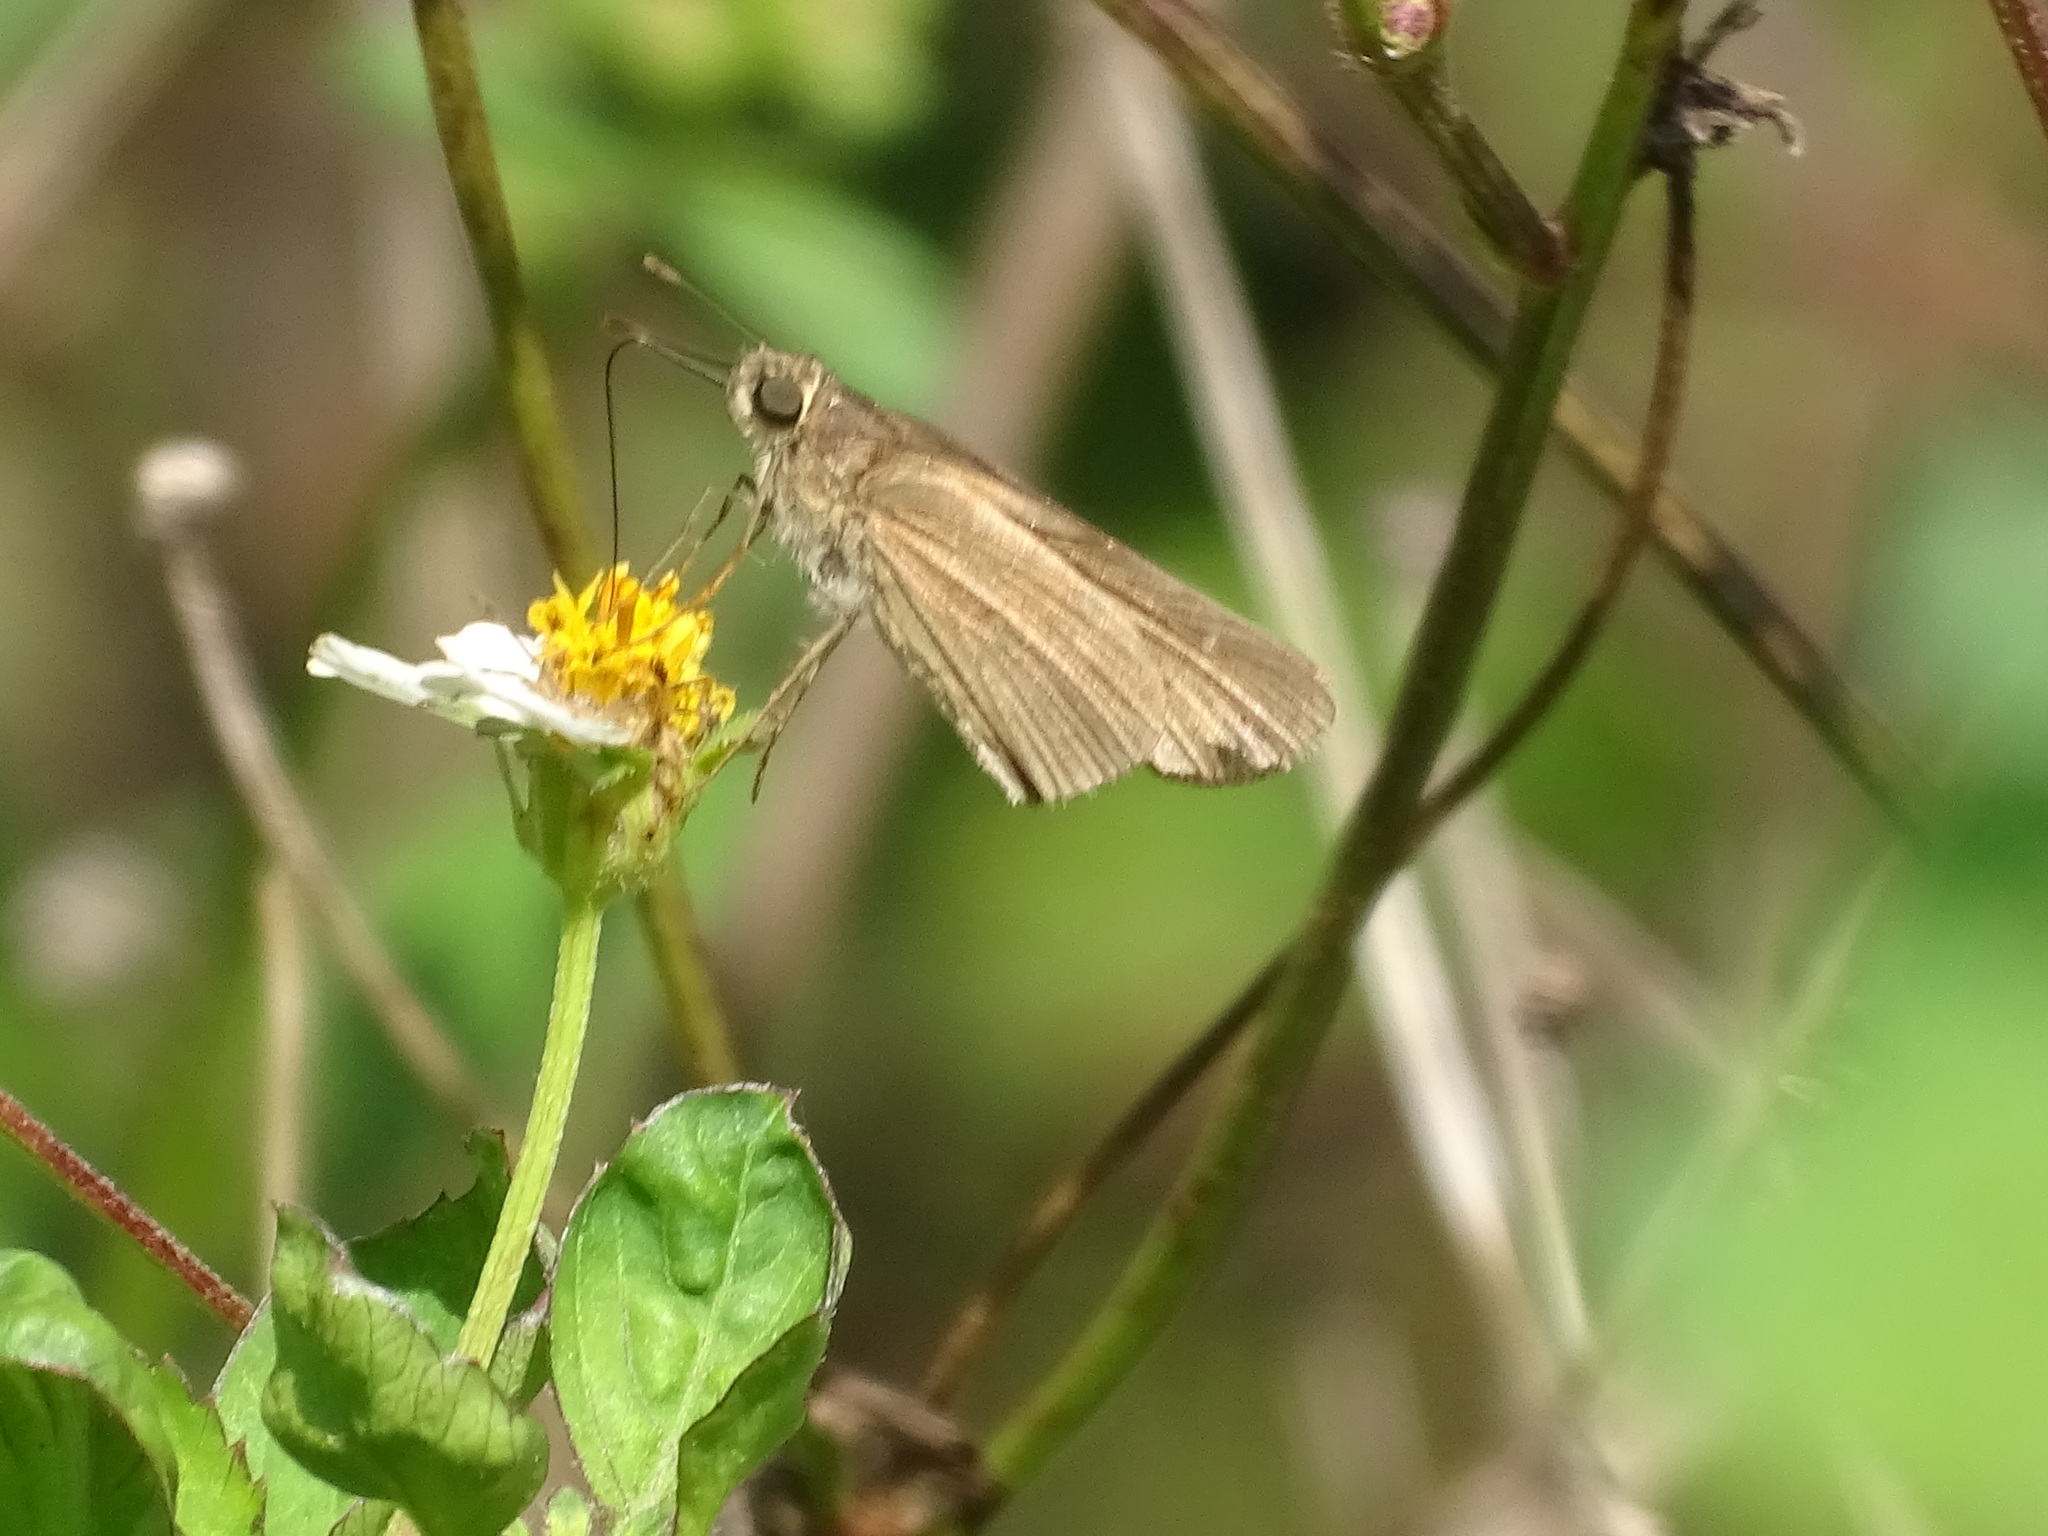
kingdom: Animalia
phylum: Arthropoda
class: Insecta
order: Lepidoptera
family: Hesperiidae
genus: Panoquina
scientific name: Panoquina ocola
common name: Ocola skipper
